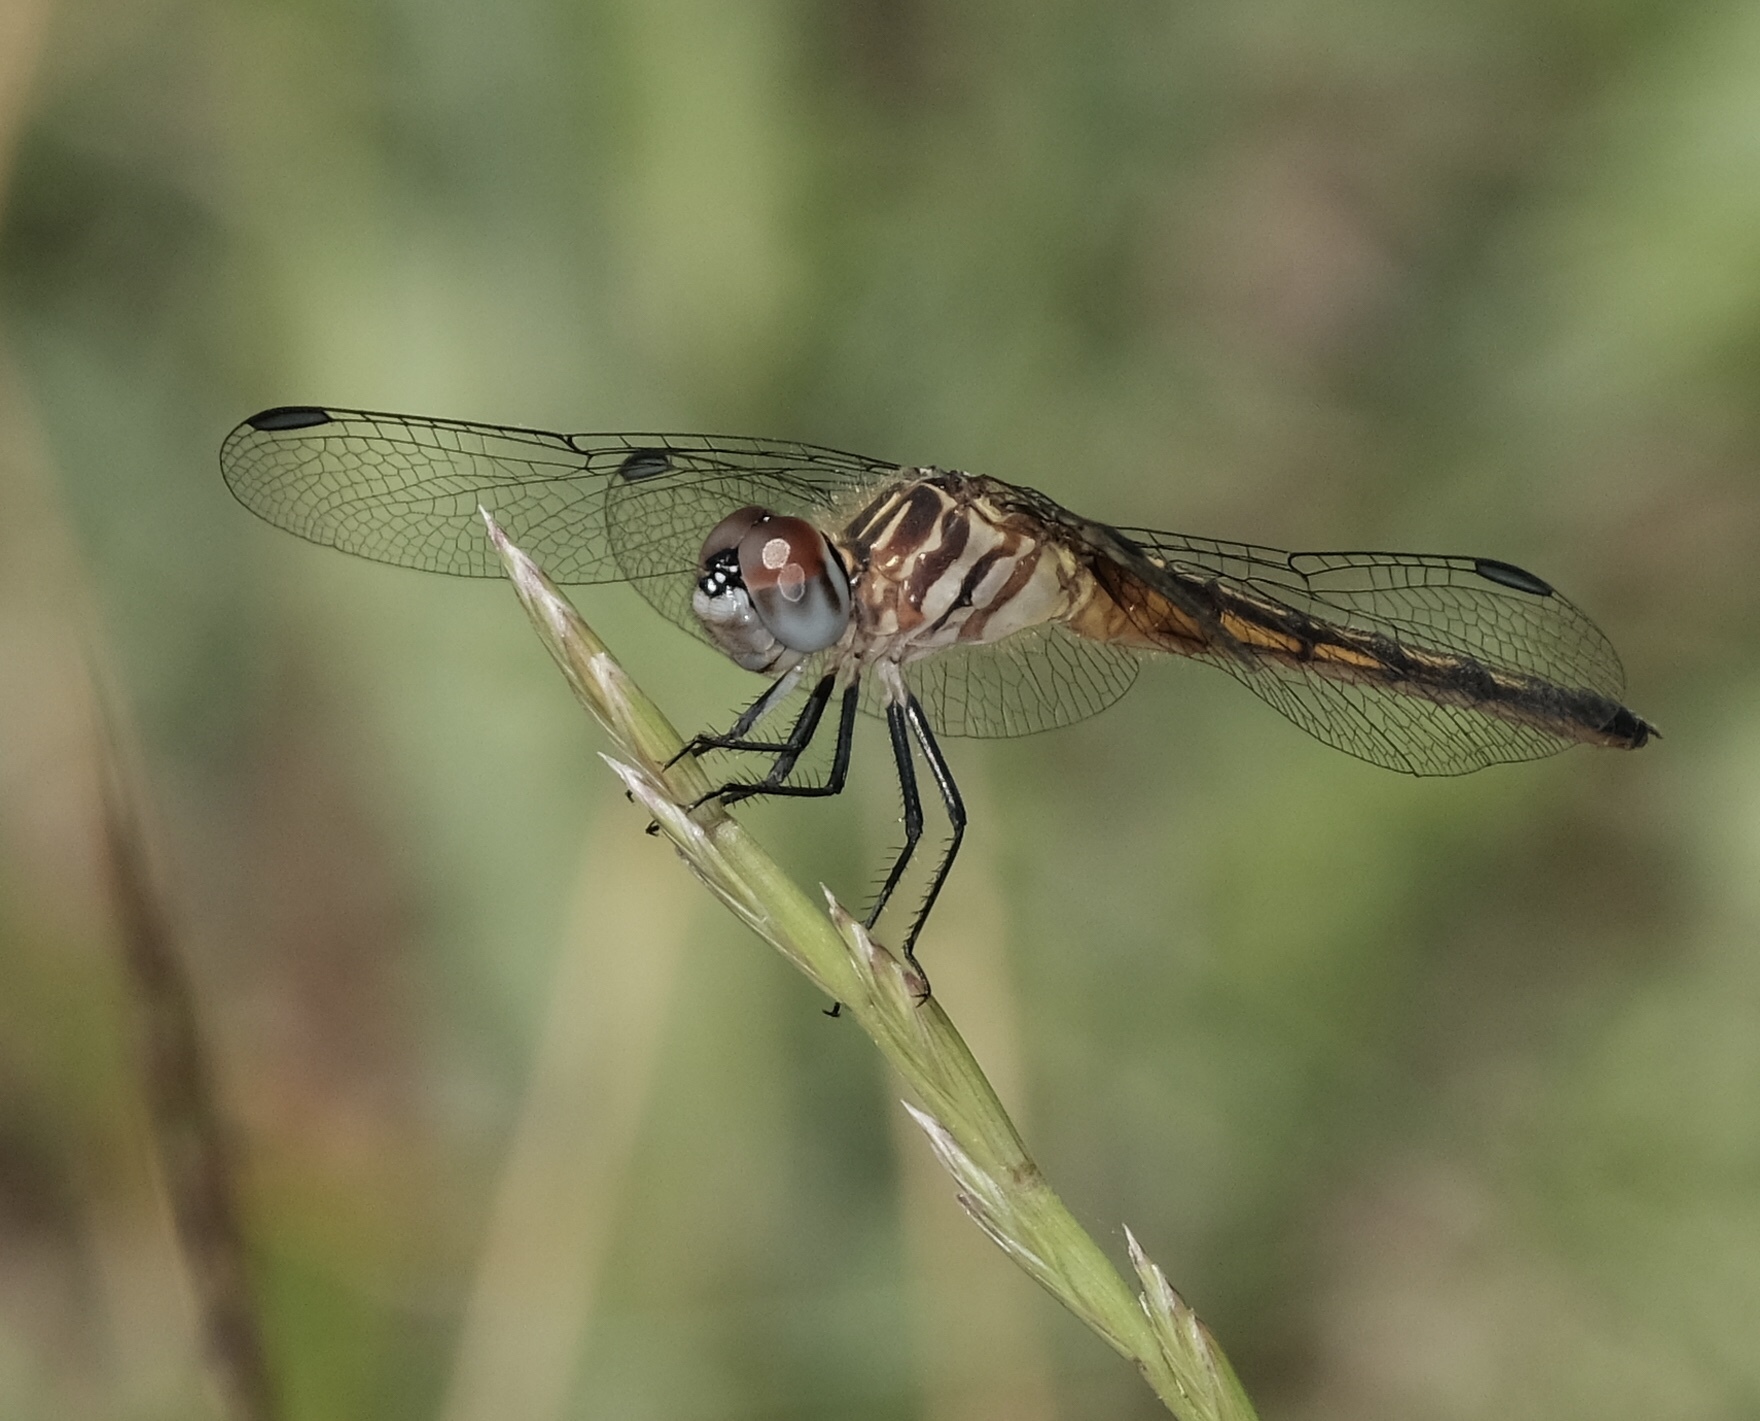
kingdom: Animalia
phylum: Arthropoda
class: Insecta
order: Odonata
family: Libellulidae
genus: Pachydiplax
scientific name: Pachydiplax longipennis
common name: Blue dasher
